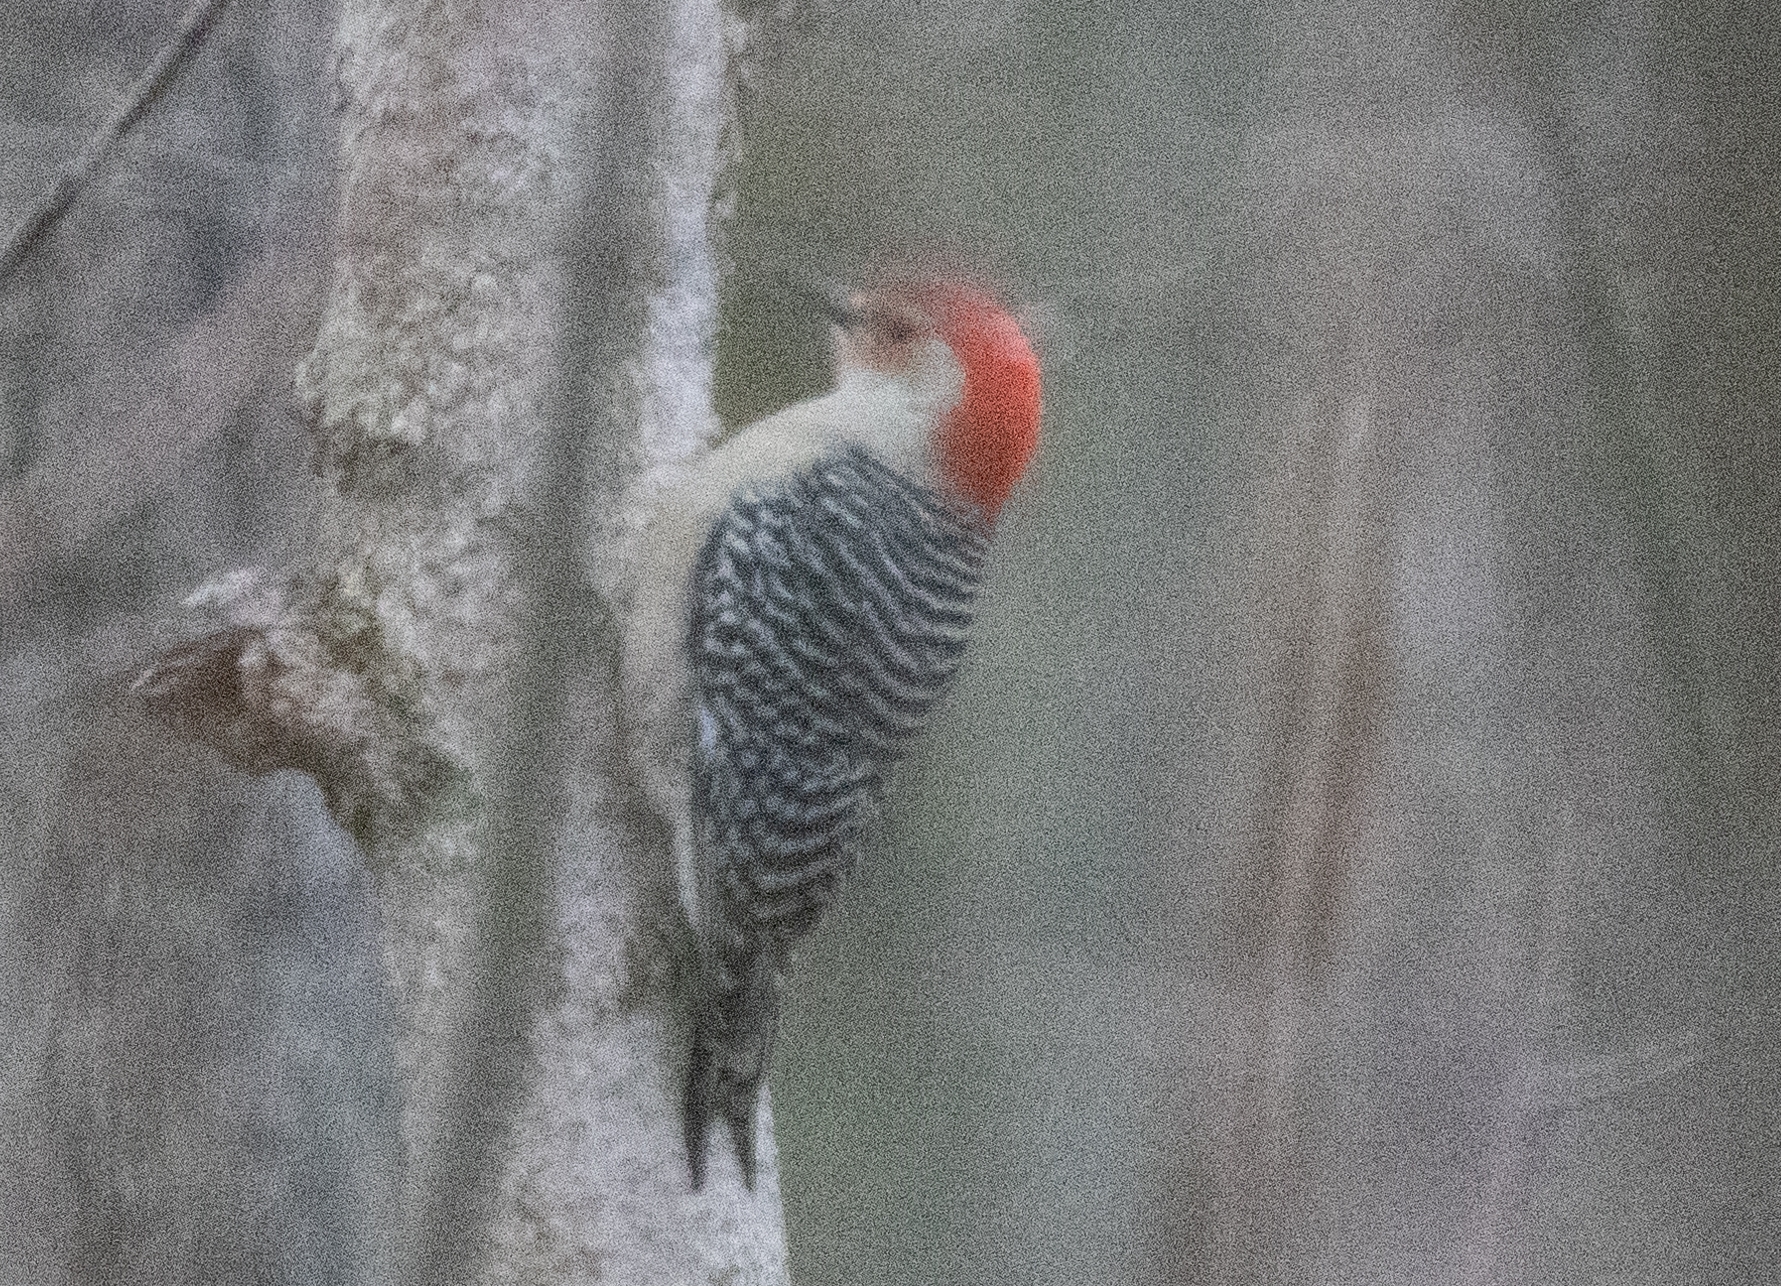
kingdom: Animalia
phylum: Chordata
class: Aves
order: Piciformes
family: Picidae
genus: Melanerpes
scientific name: Melanerpes carolinus
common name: Red-bellied woodpecker
